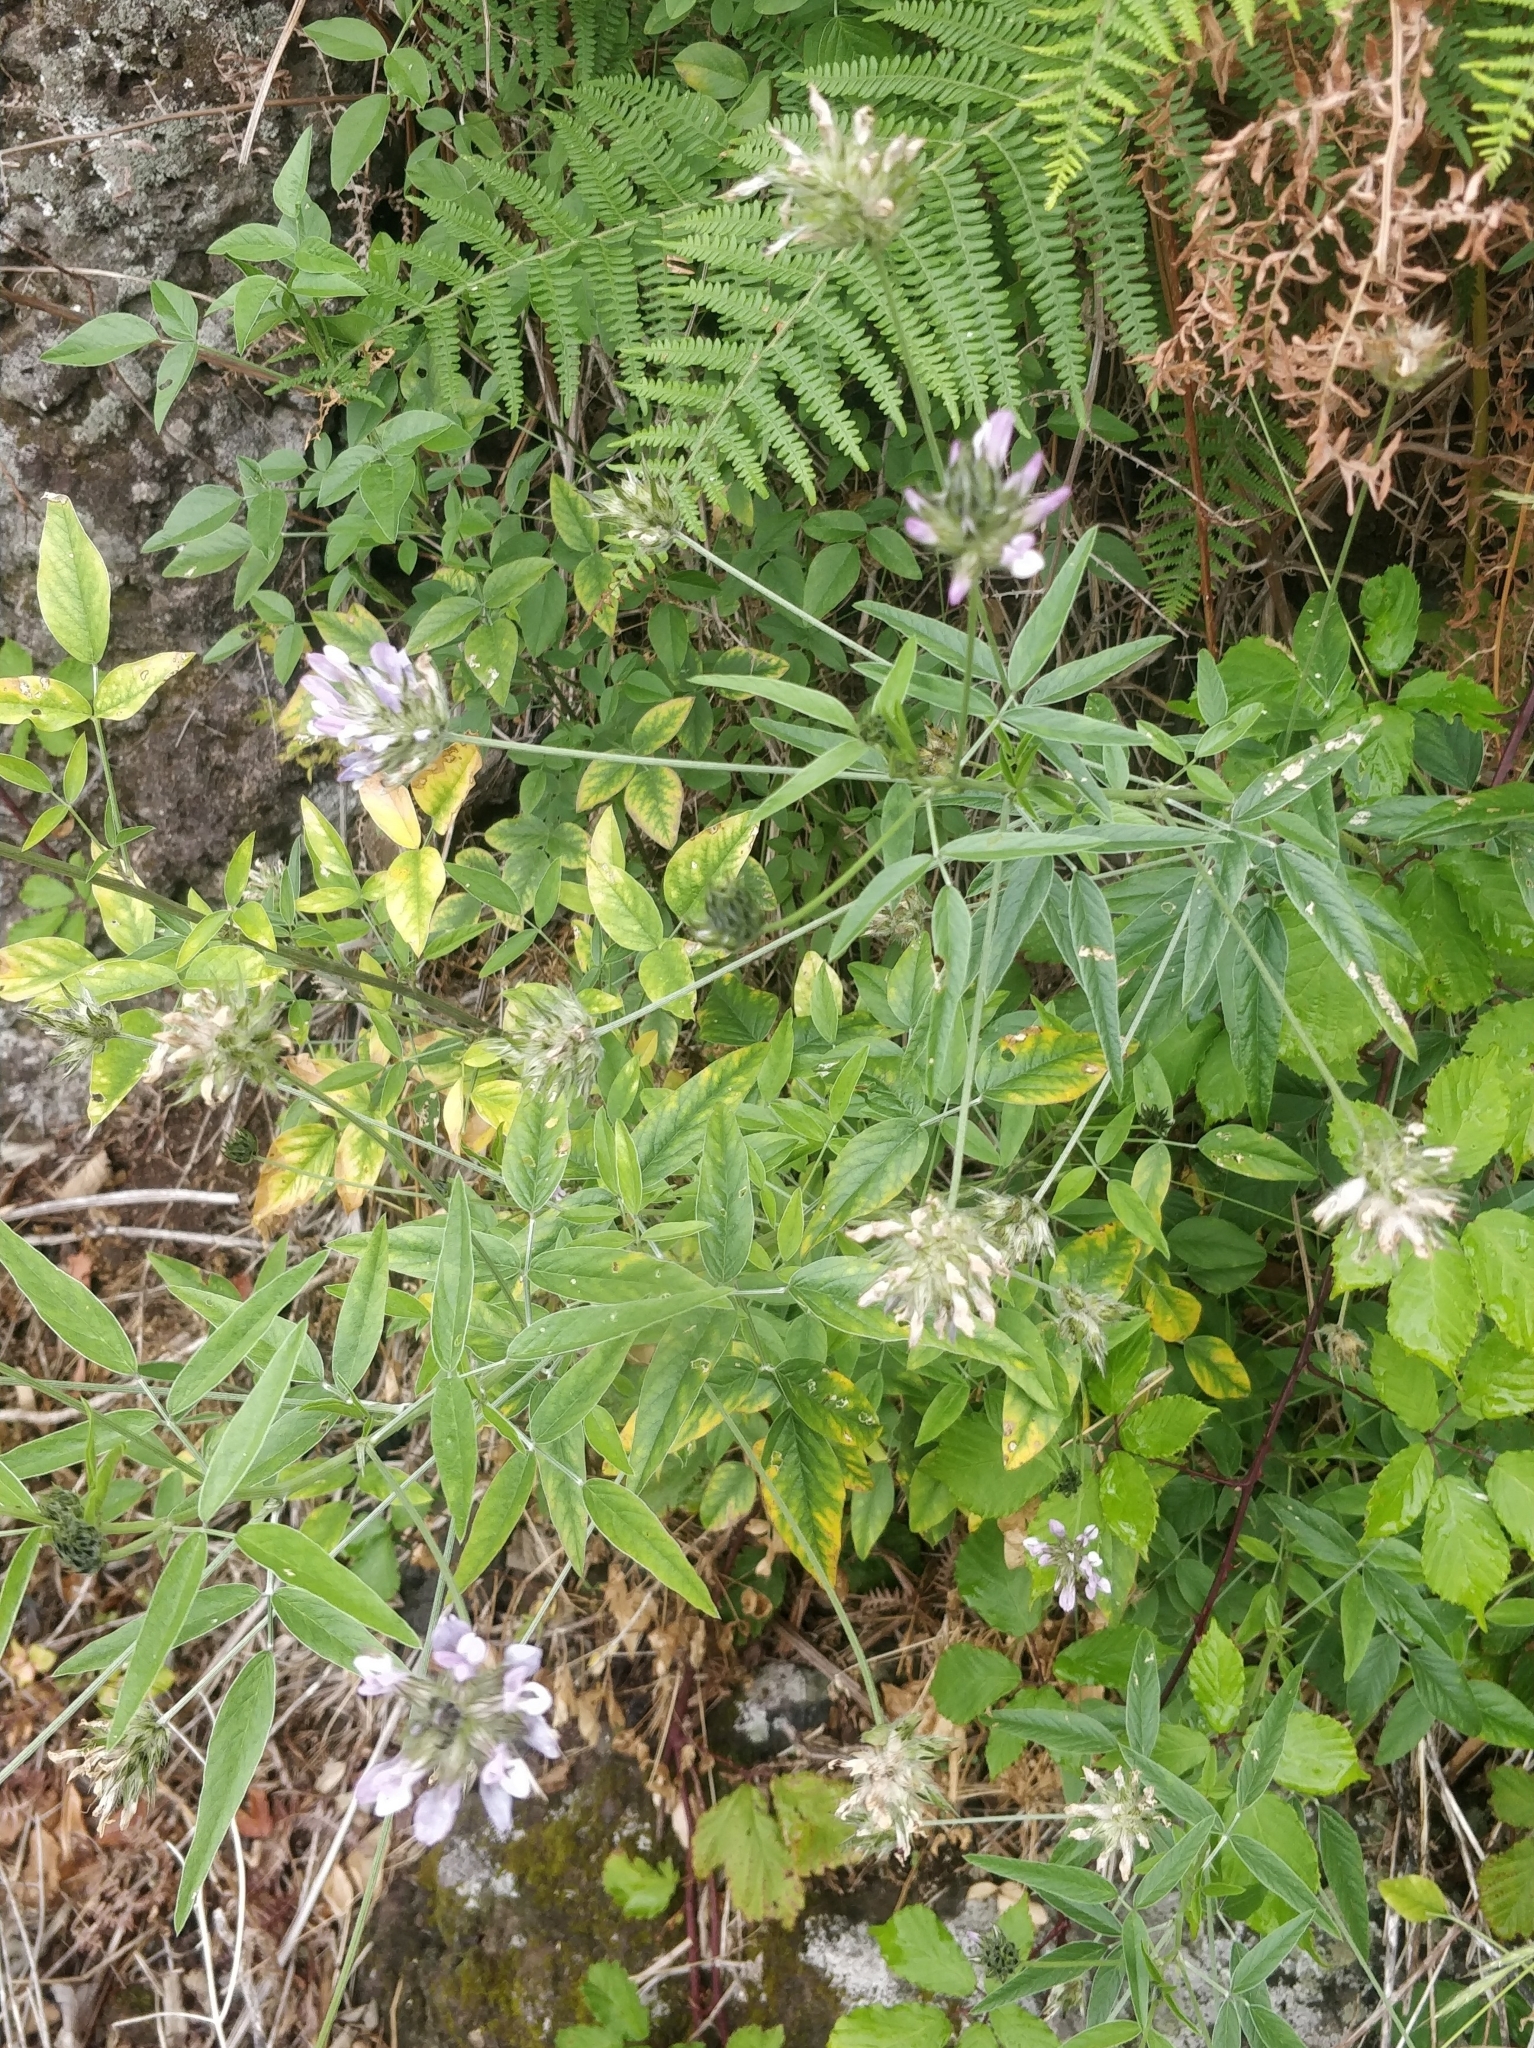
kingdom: Plantae
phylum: Tracheophyta
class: Magnoliopsida
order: Fabales
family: Fabaceae
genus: Bituminaria
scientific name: Bituminaria bituminosa
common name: Arabian pea
